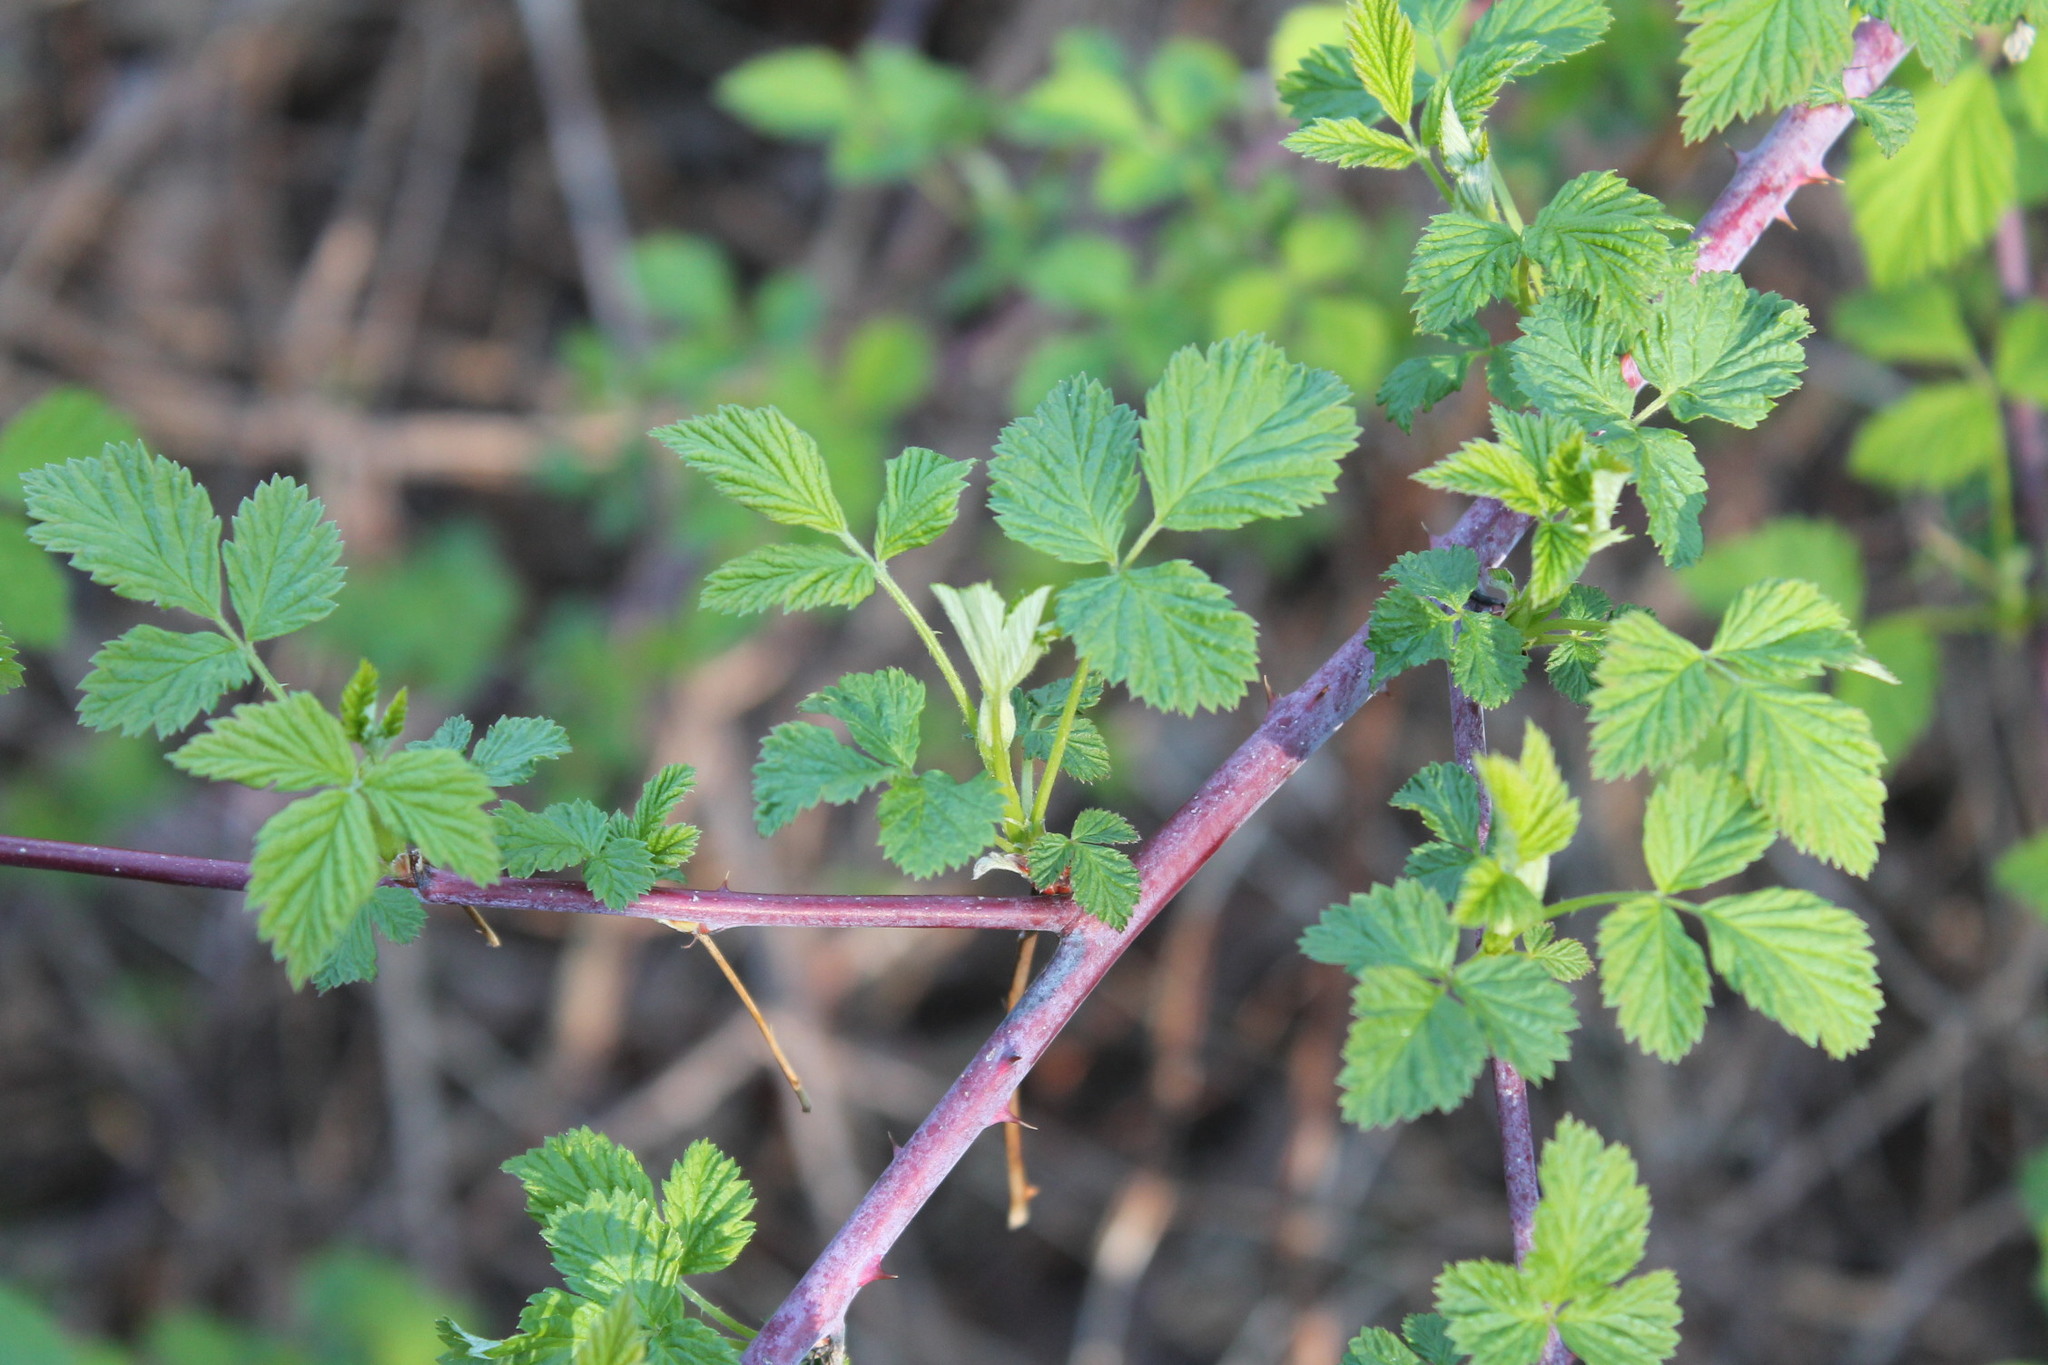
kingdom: Plantae
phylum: Tracheophyta
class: Magnoliopsida
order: Rosales
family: Rosaceae
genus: Rubus
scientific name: Rubus occidentalis
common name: Black raspberry
